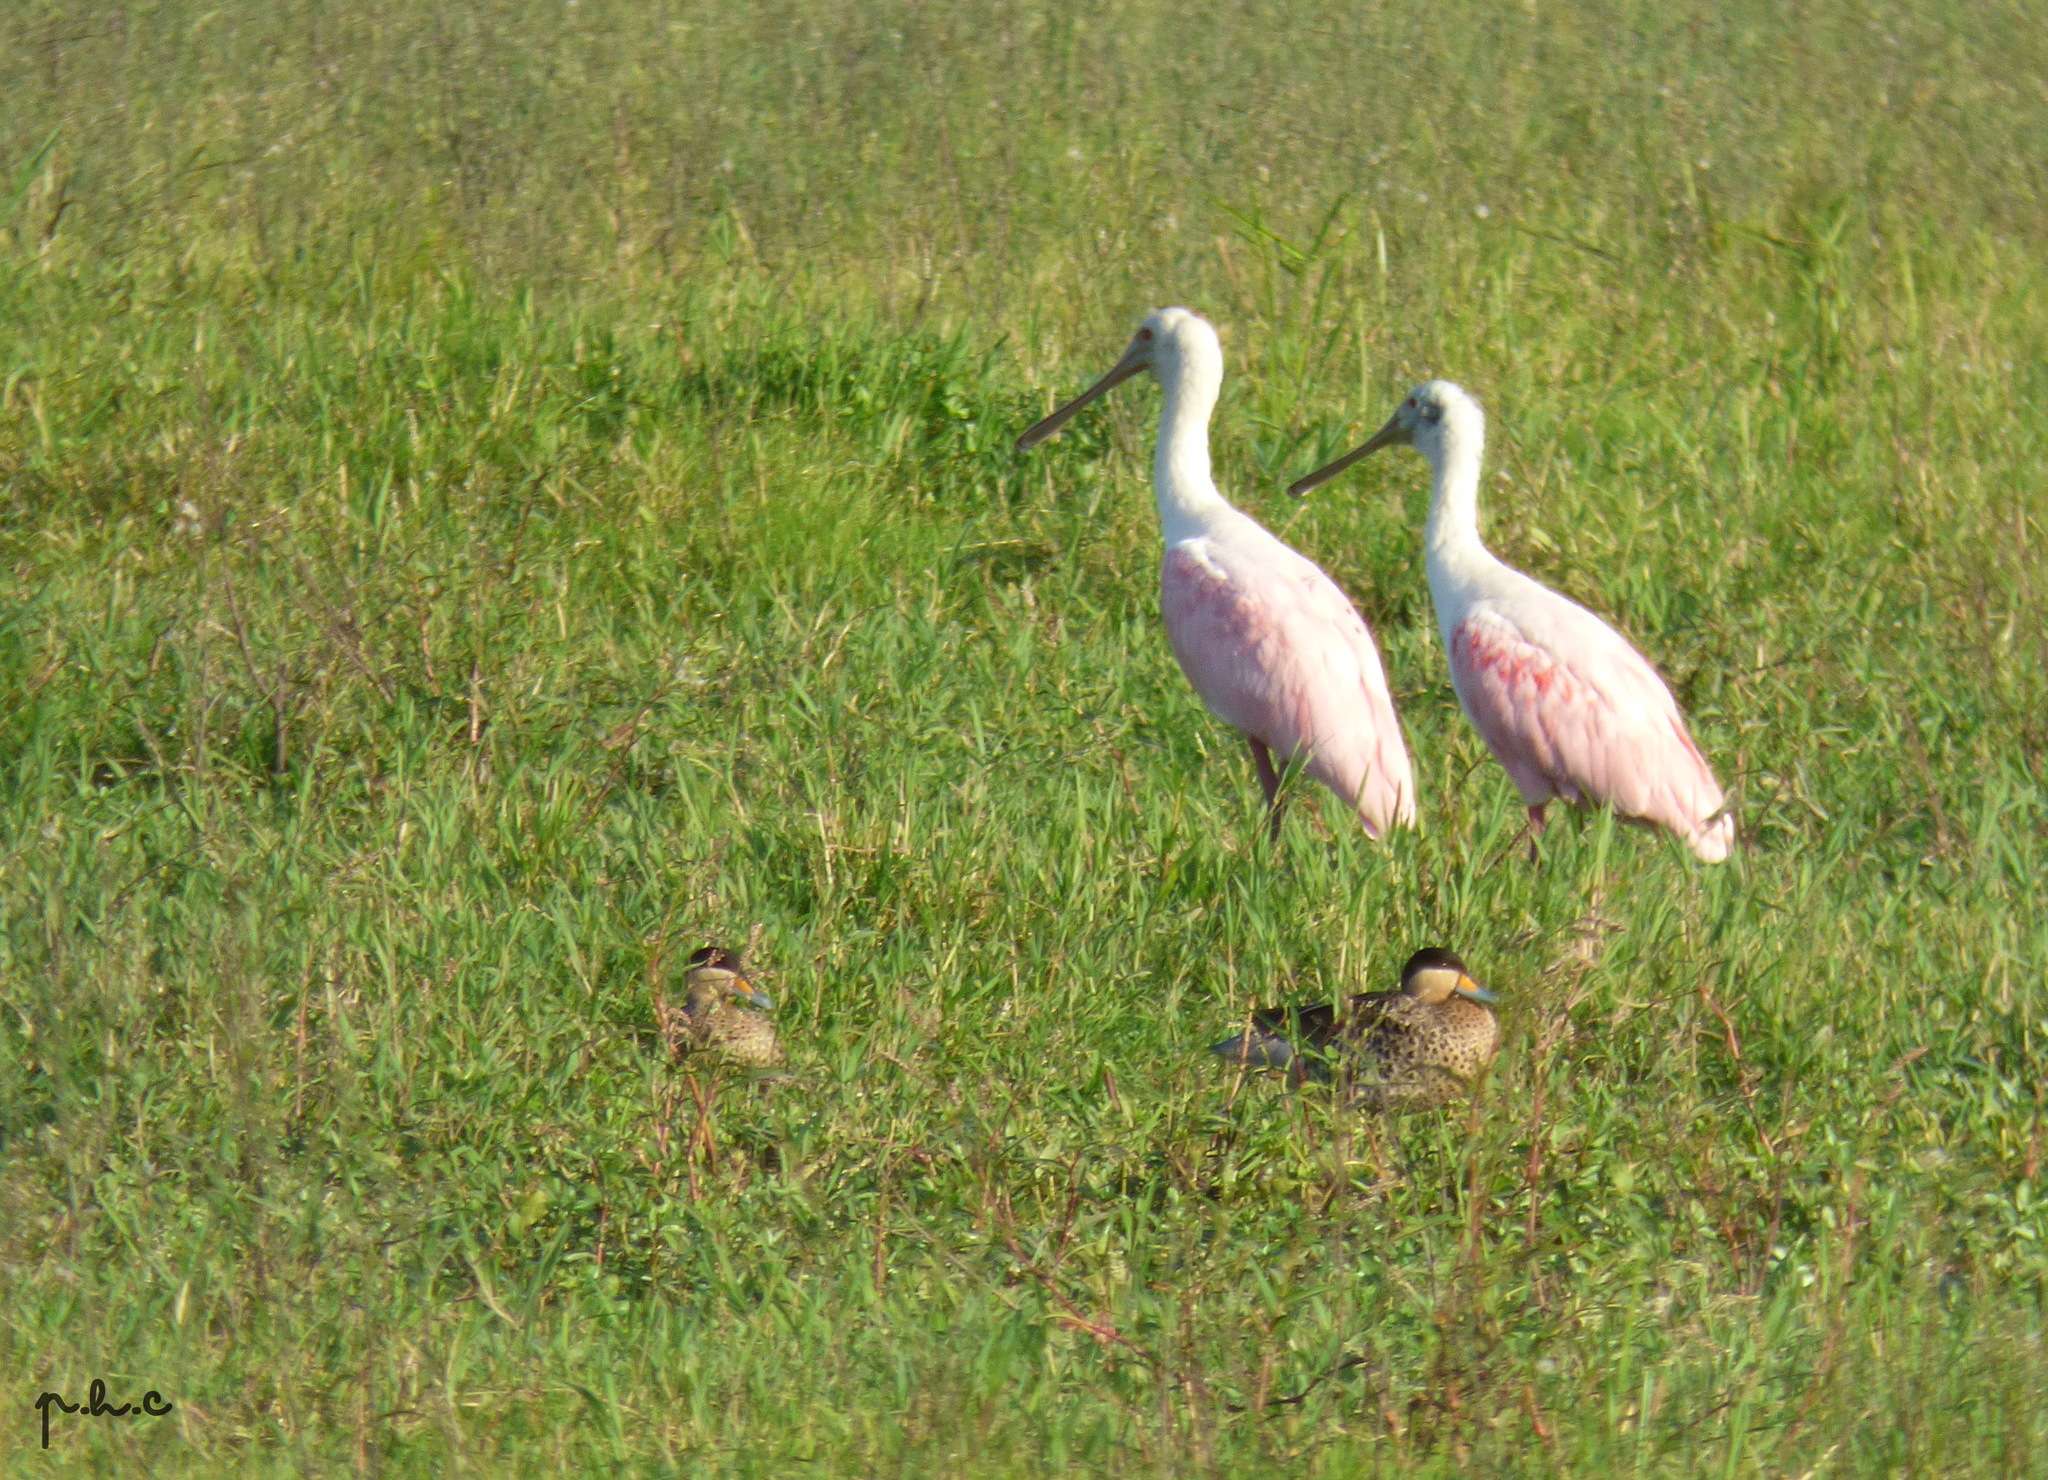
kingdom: Animalia
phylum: Chordata
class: Aves
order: Pelecaniformes
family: Threskiornithidae
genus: Platalea
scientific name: Platalea ajaja
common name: Roseate spoonbill
